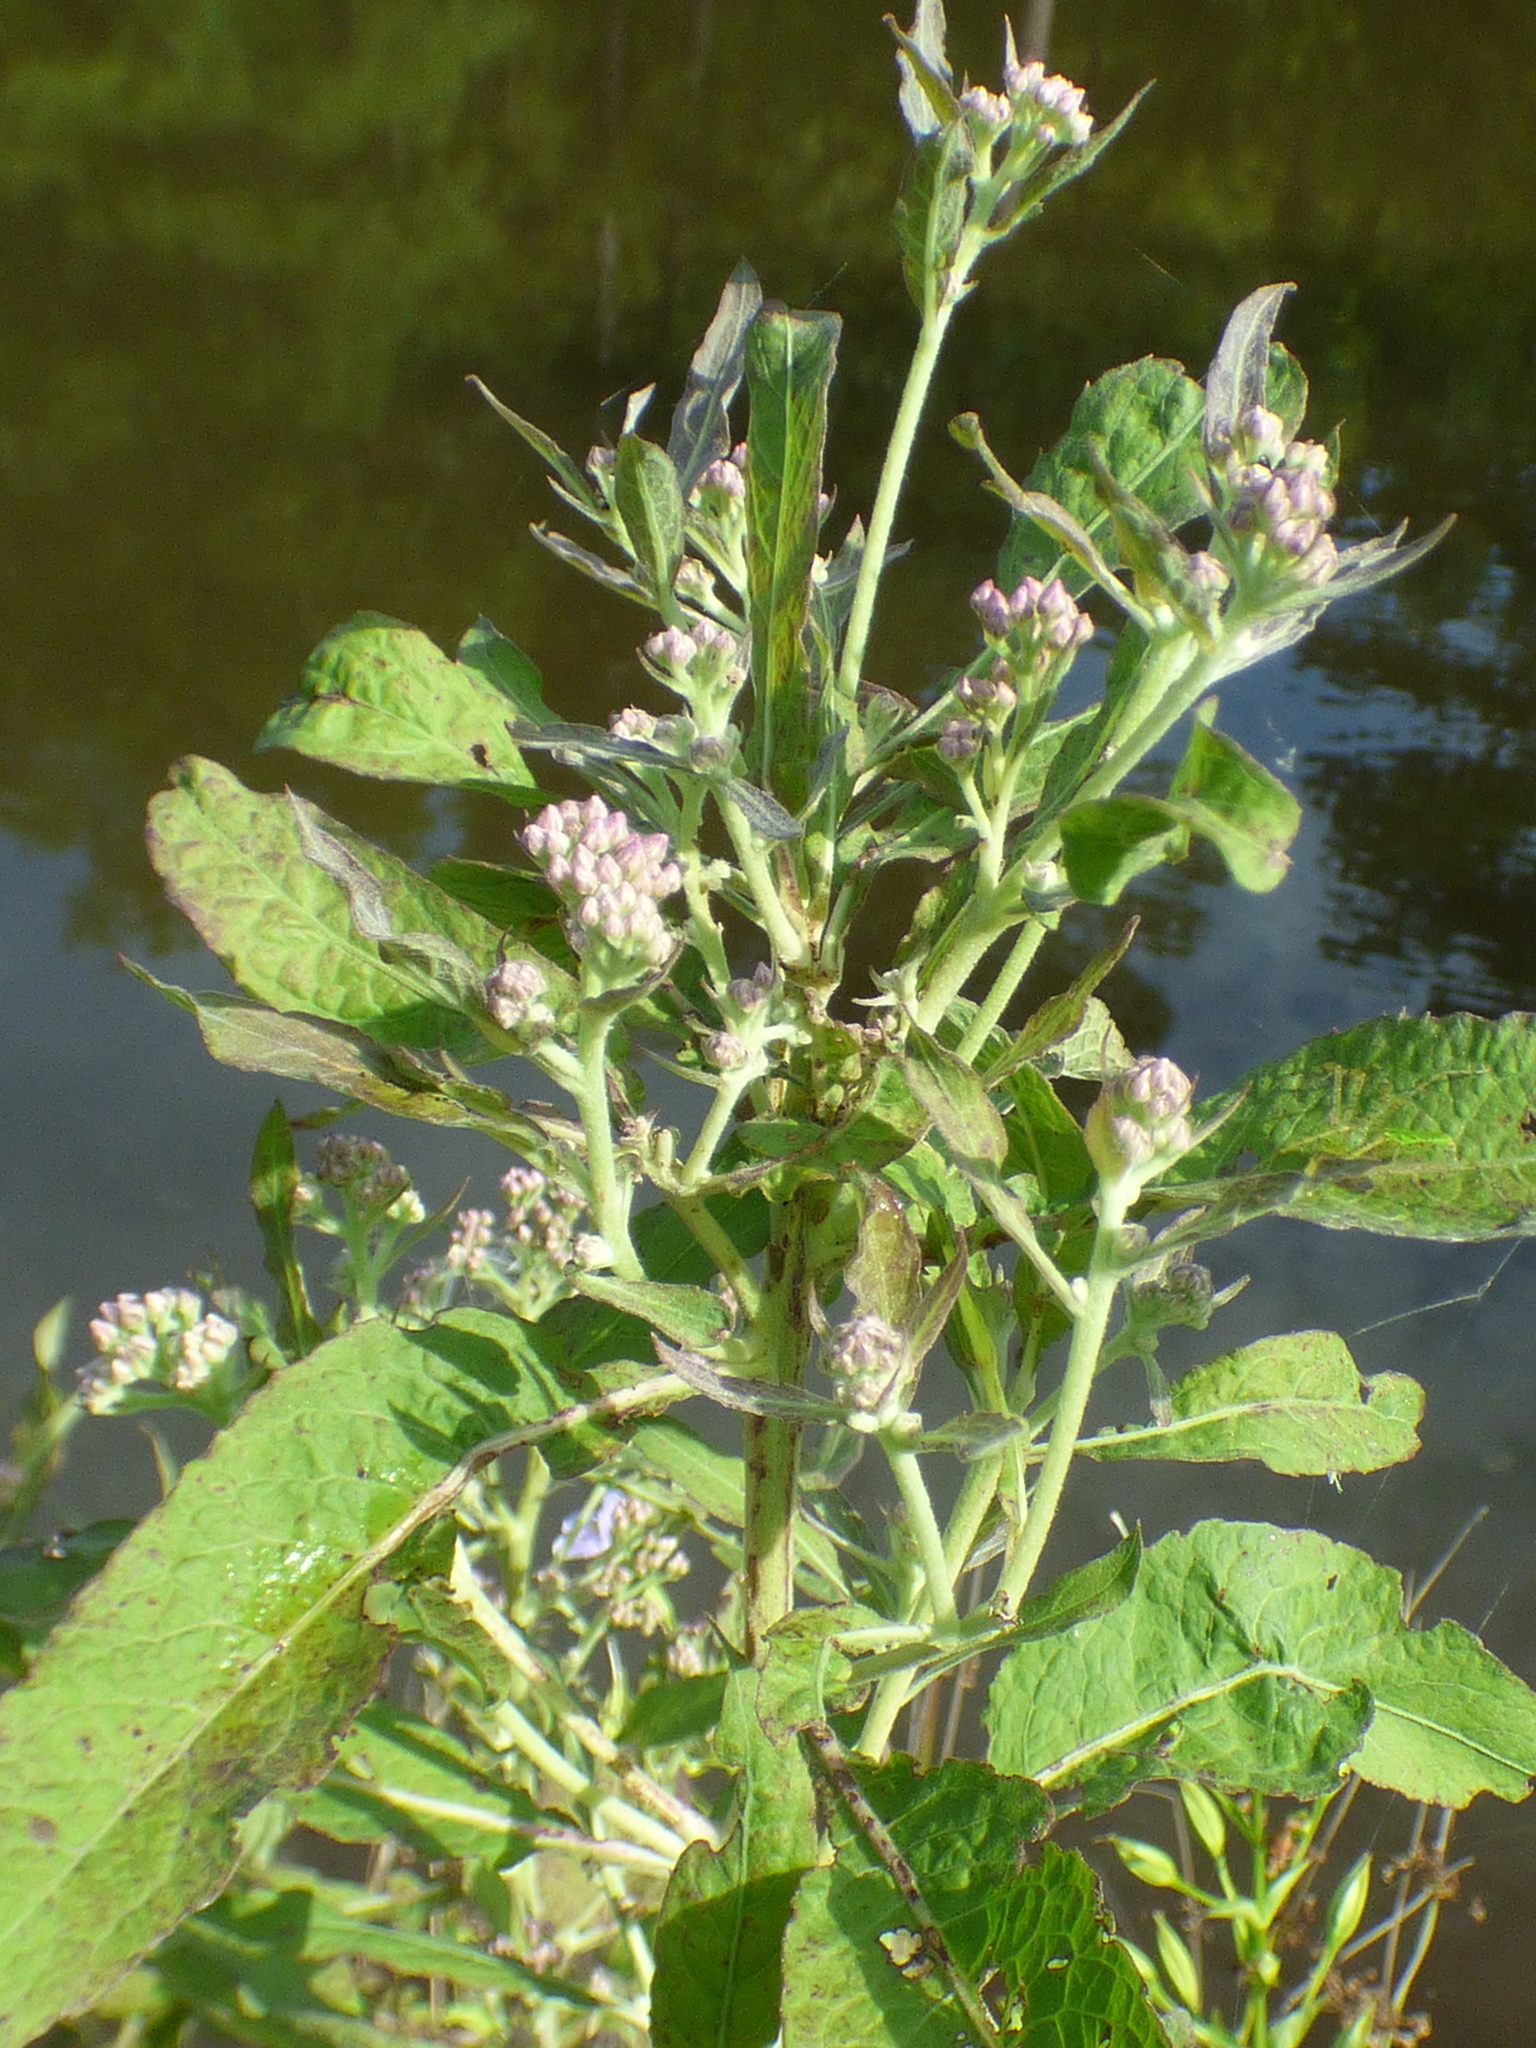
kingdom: Plantae
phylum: Tracheophyta
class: Magnoliopsida
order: Asterales
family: Asteraceae
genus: Pluchea
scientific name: Pluchea camphorata
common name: Camphor pluchea
